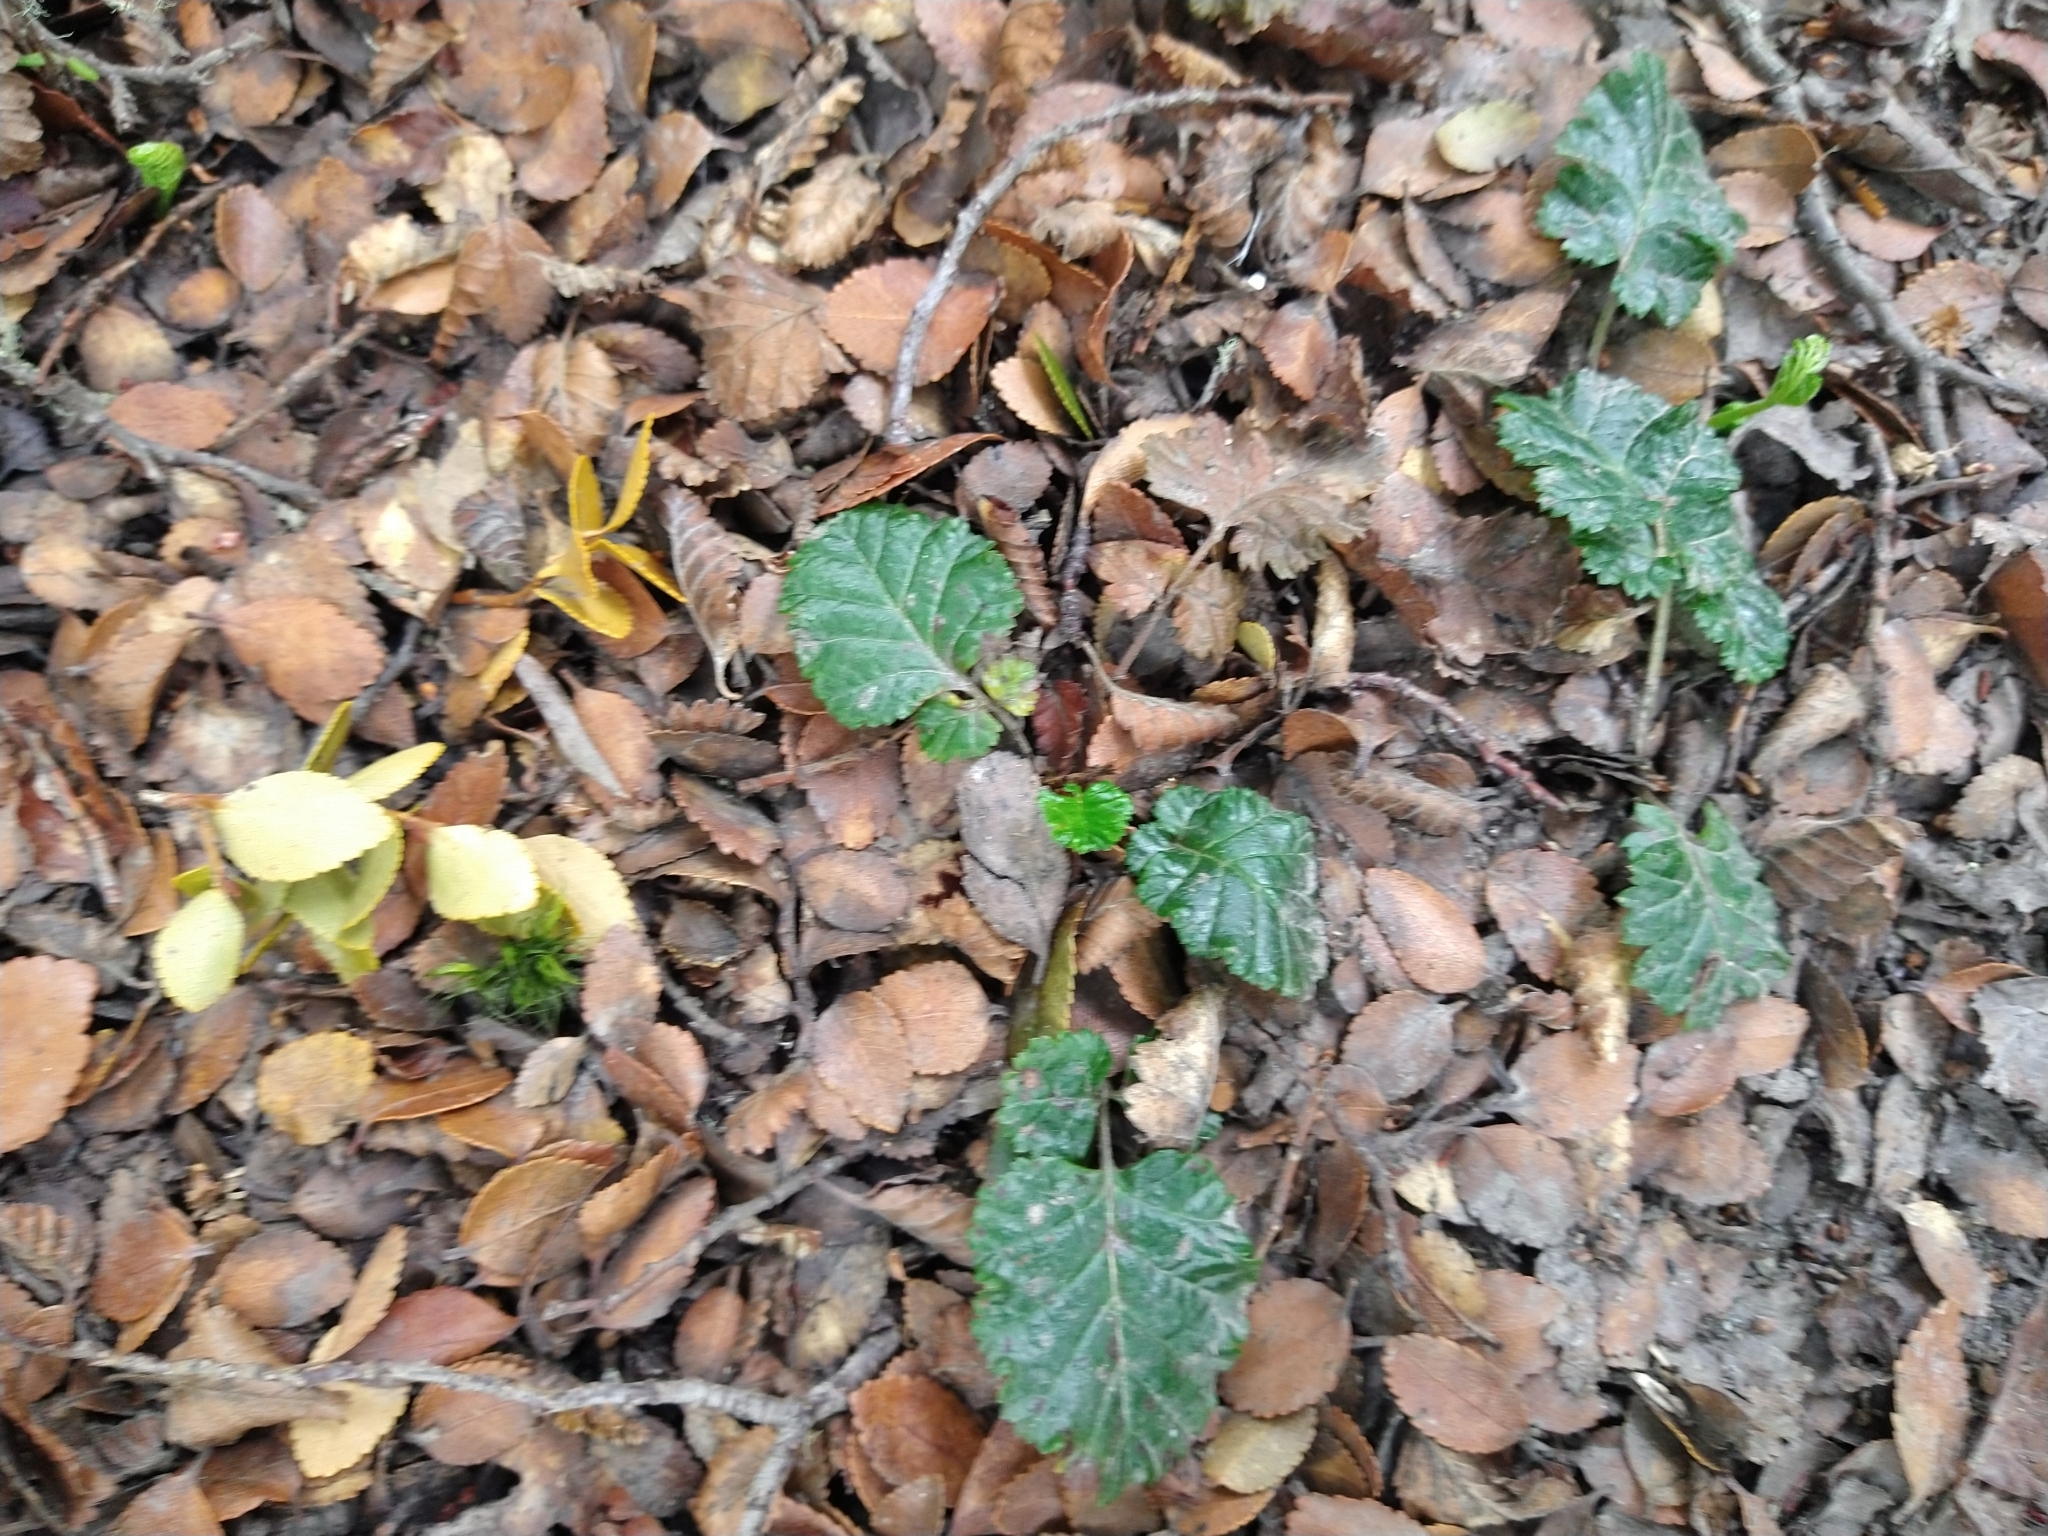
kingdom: Plantae
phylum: Tracheophyta
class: Magnoliopsida
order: Rosales
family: Rosaceae
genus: Rubus
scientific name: Rubus geoides
